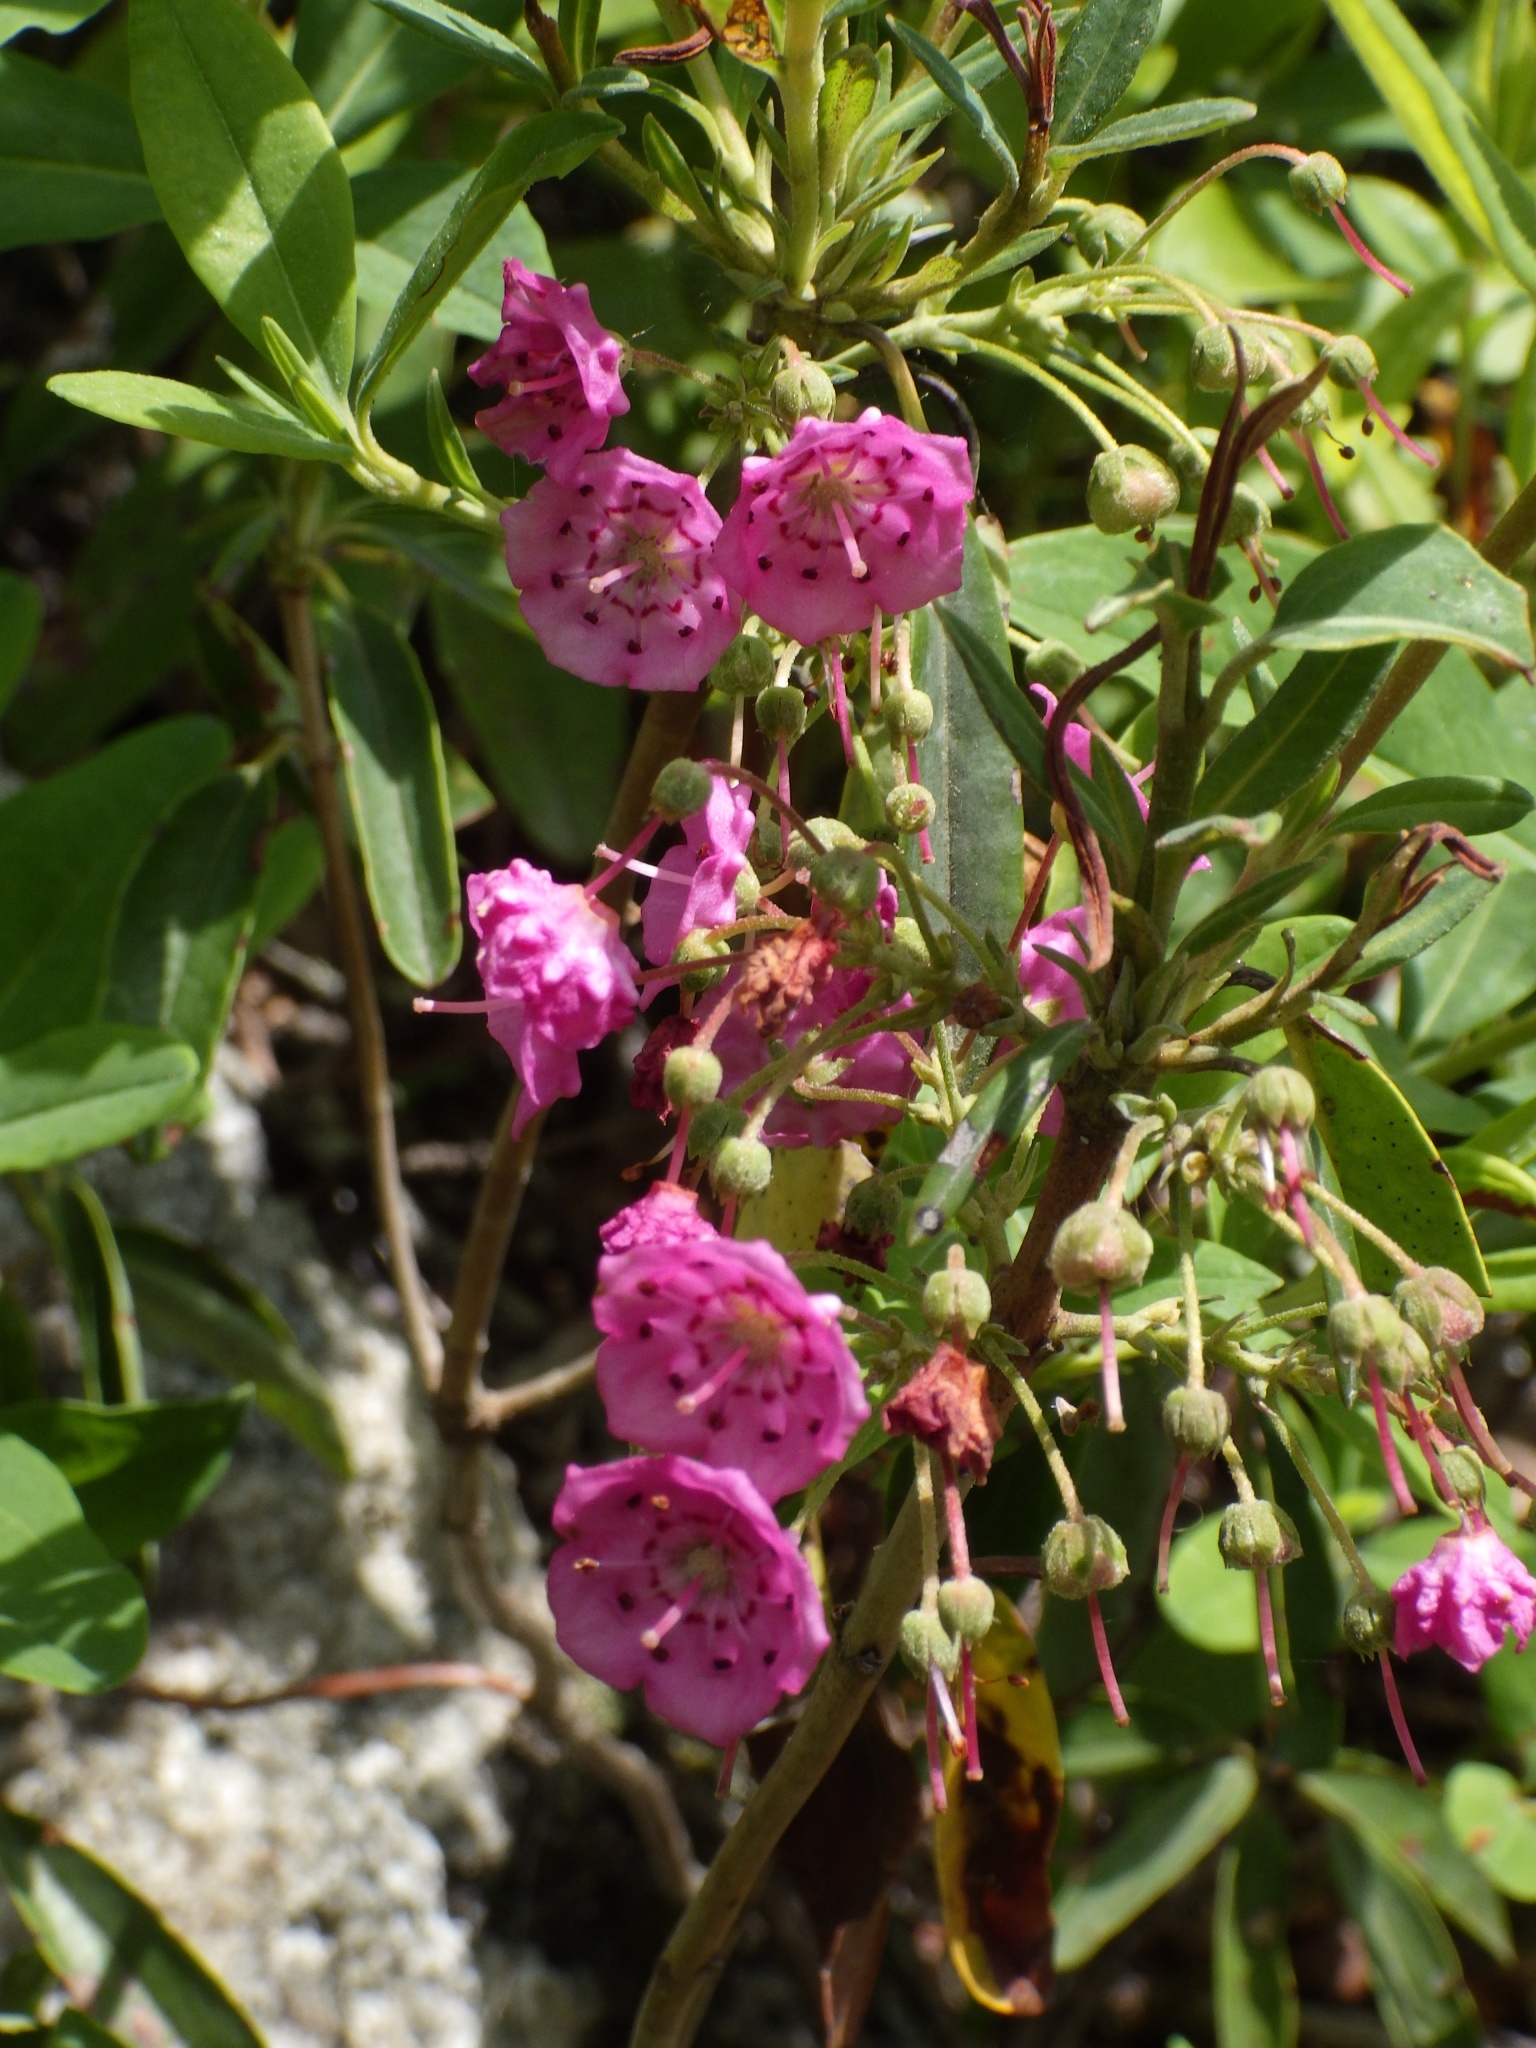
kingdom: Plantae
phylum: Tracheophyta
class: Magnoliopsida
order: Ericales
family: Ericaceae
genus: Kalmia
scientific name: Kalmia angustifolia
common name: Sheep-laurel
